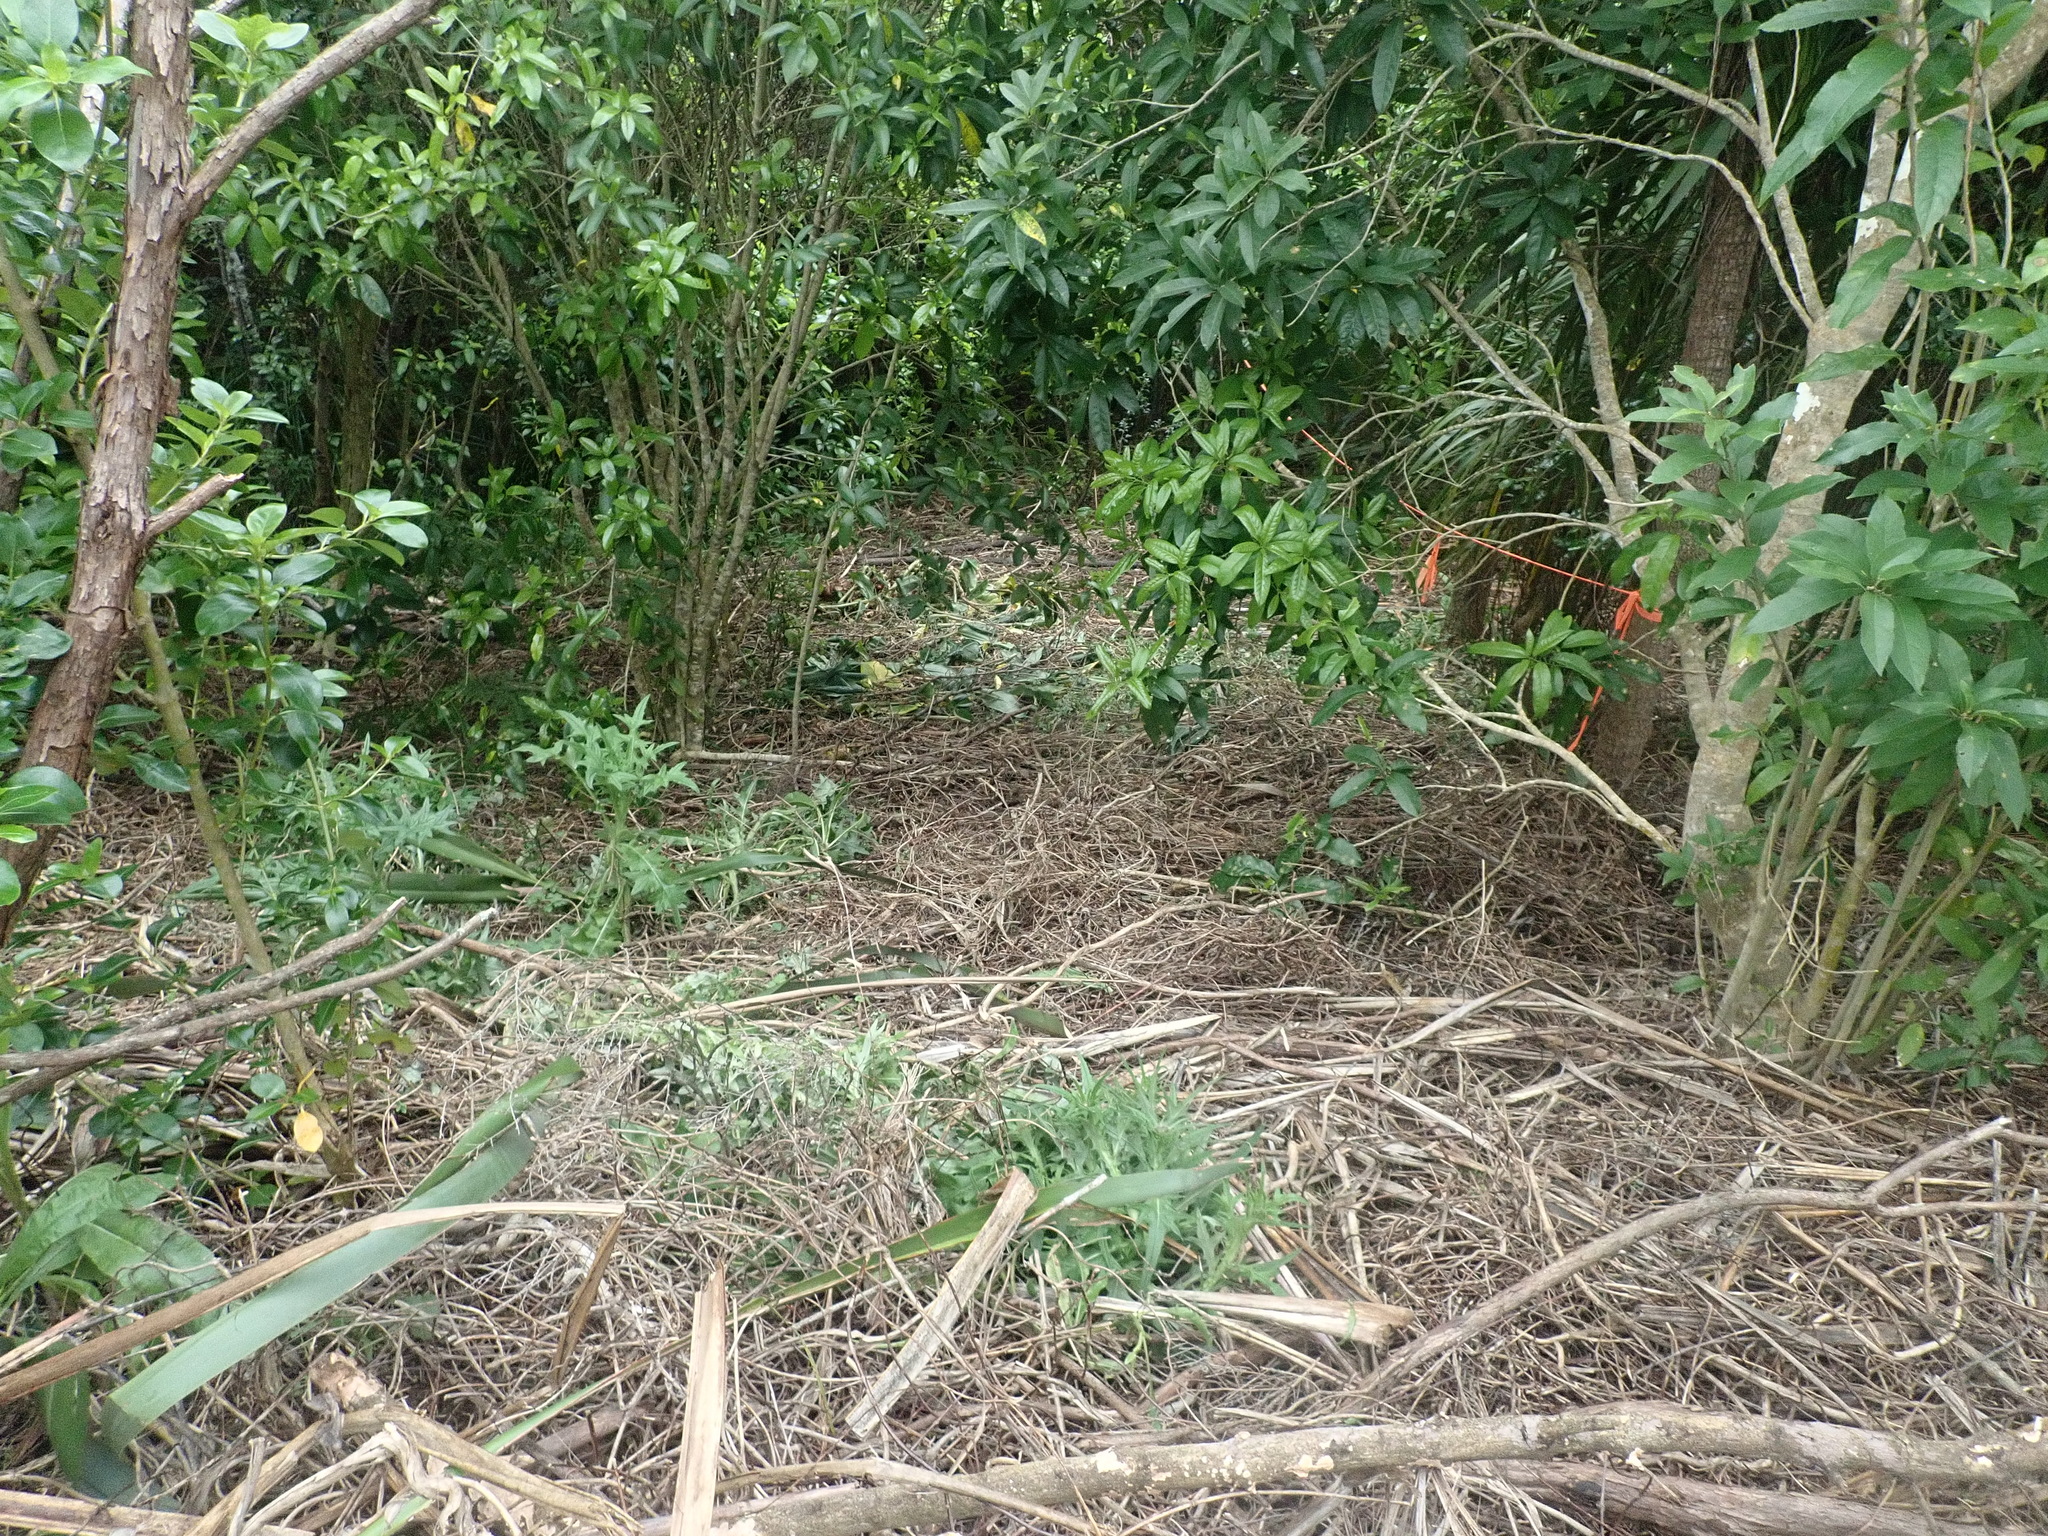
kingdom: Plantae
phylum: Tracheophyta
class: Magnoliopsida
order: Malpighiales
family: Violaceae
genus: Melicytus
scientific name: Melicytus ramiflorus
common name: Mahoe
